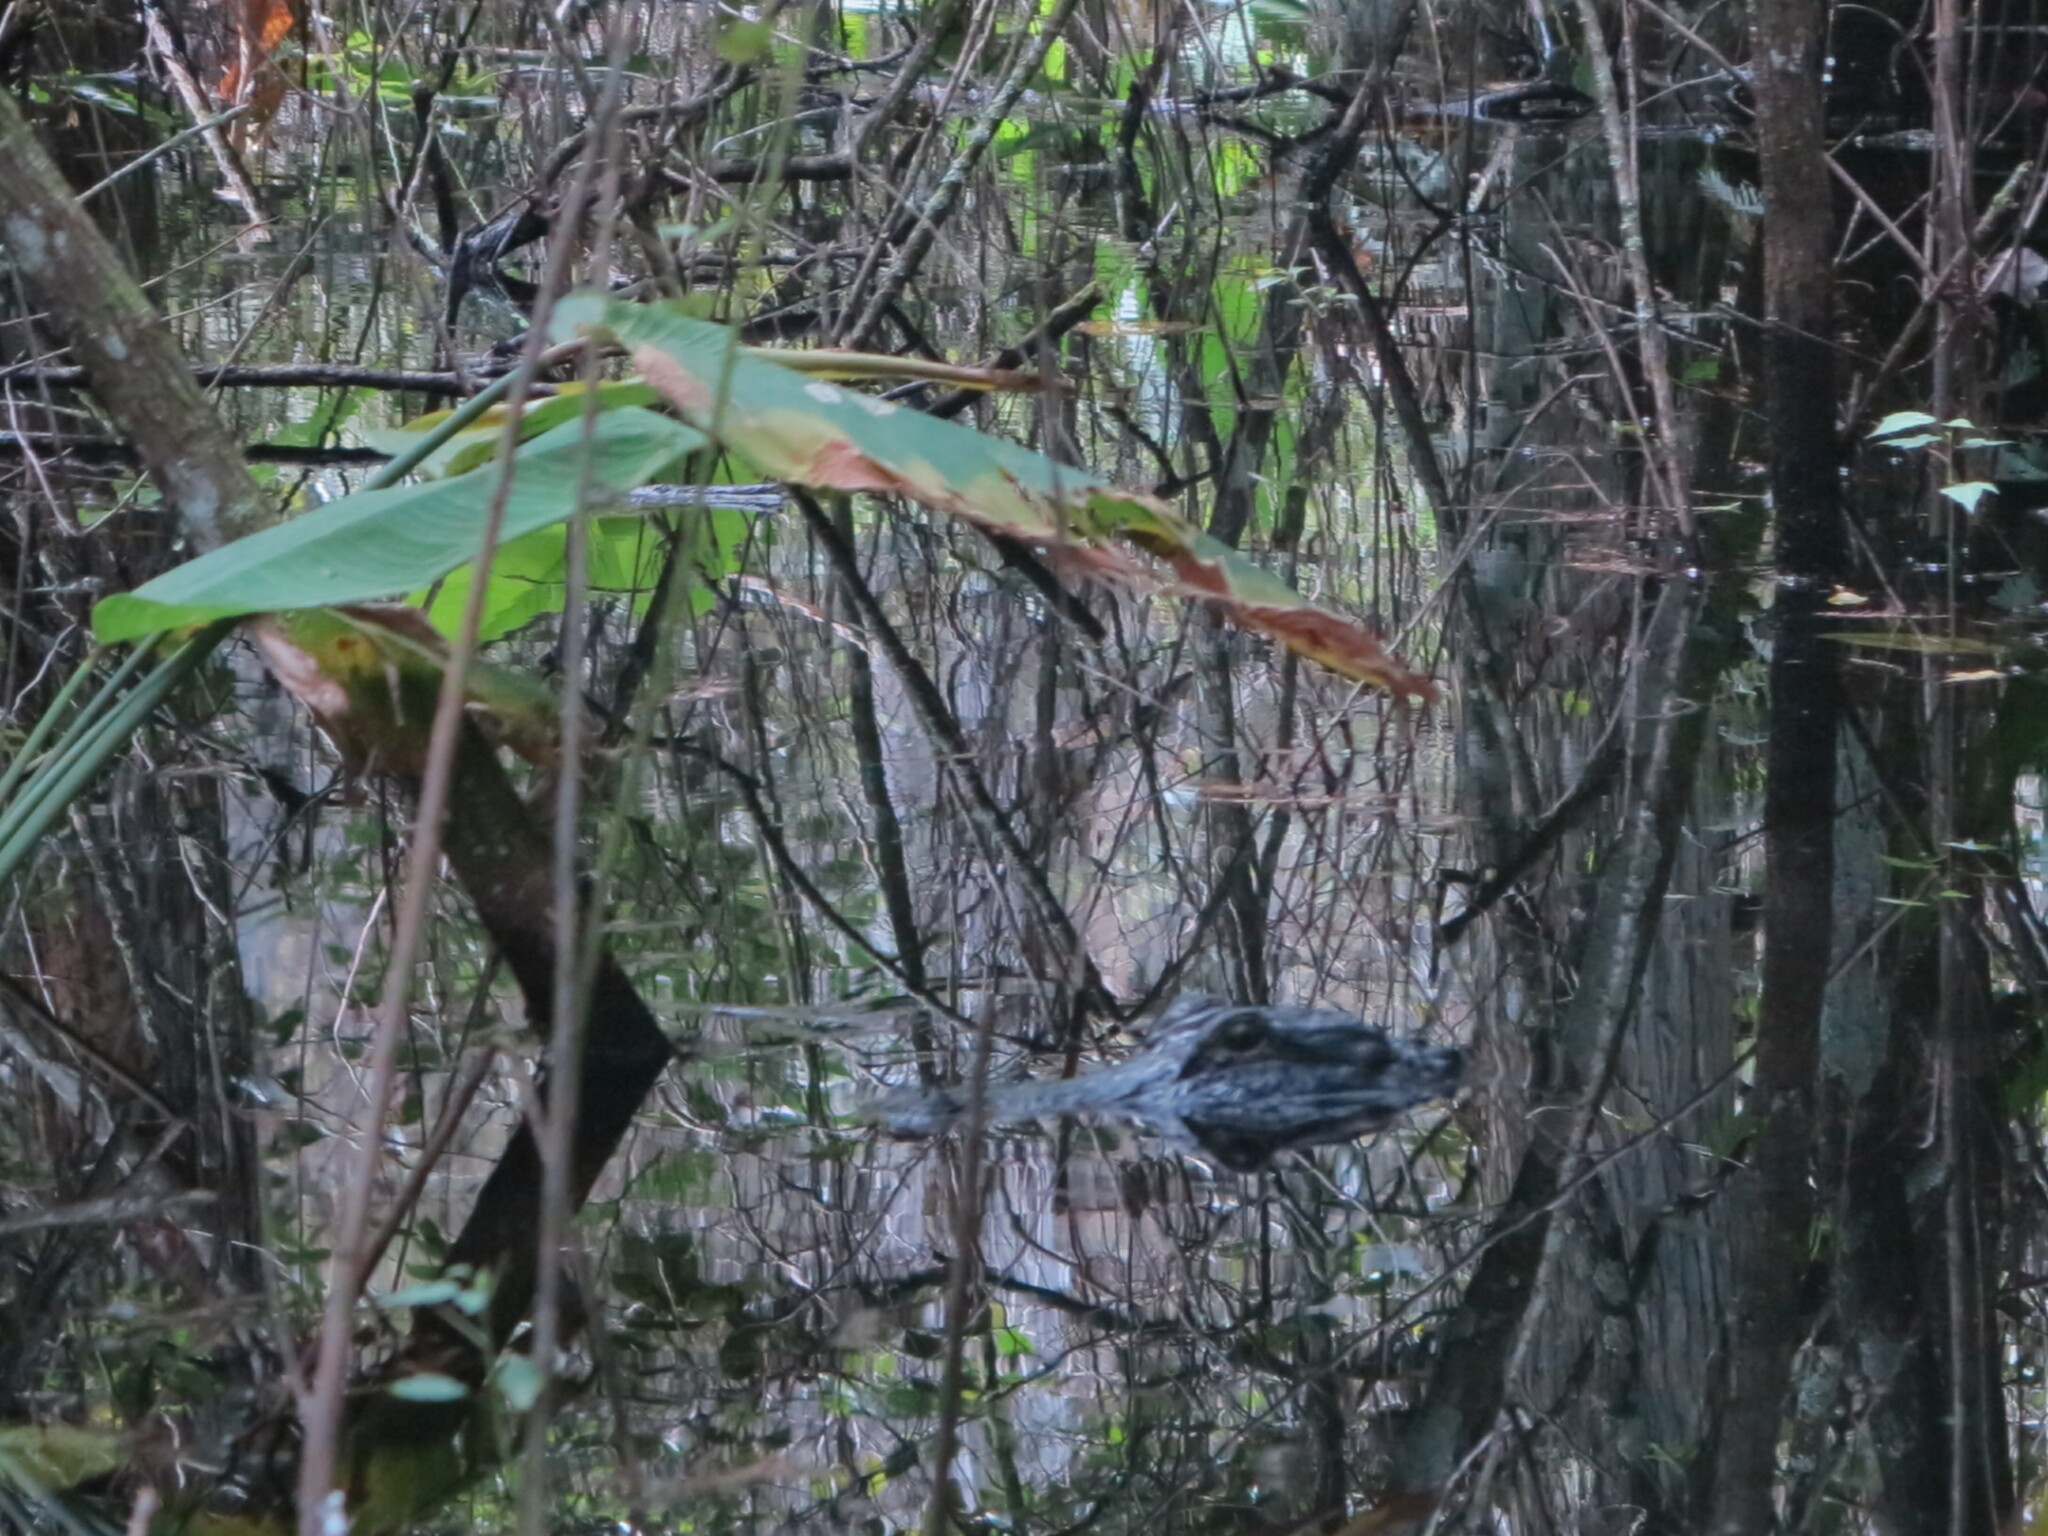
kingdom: Animalia
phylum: Chordata
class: Crocodylia
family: Alligatoridae
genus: Alligator
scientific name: Alligator mississippiensis
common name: American alligator
